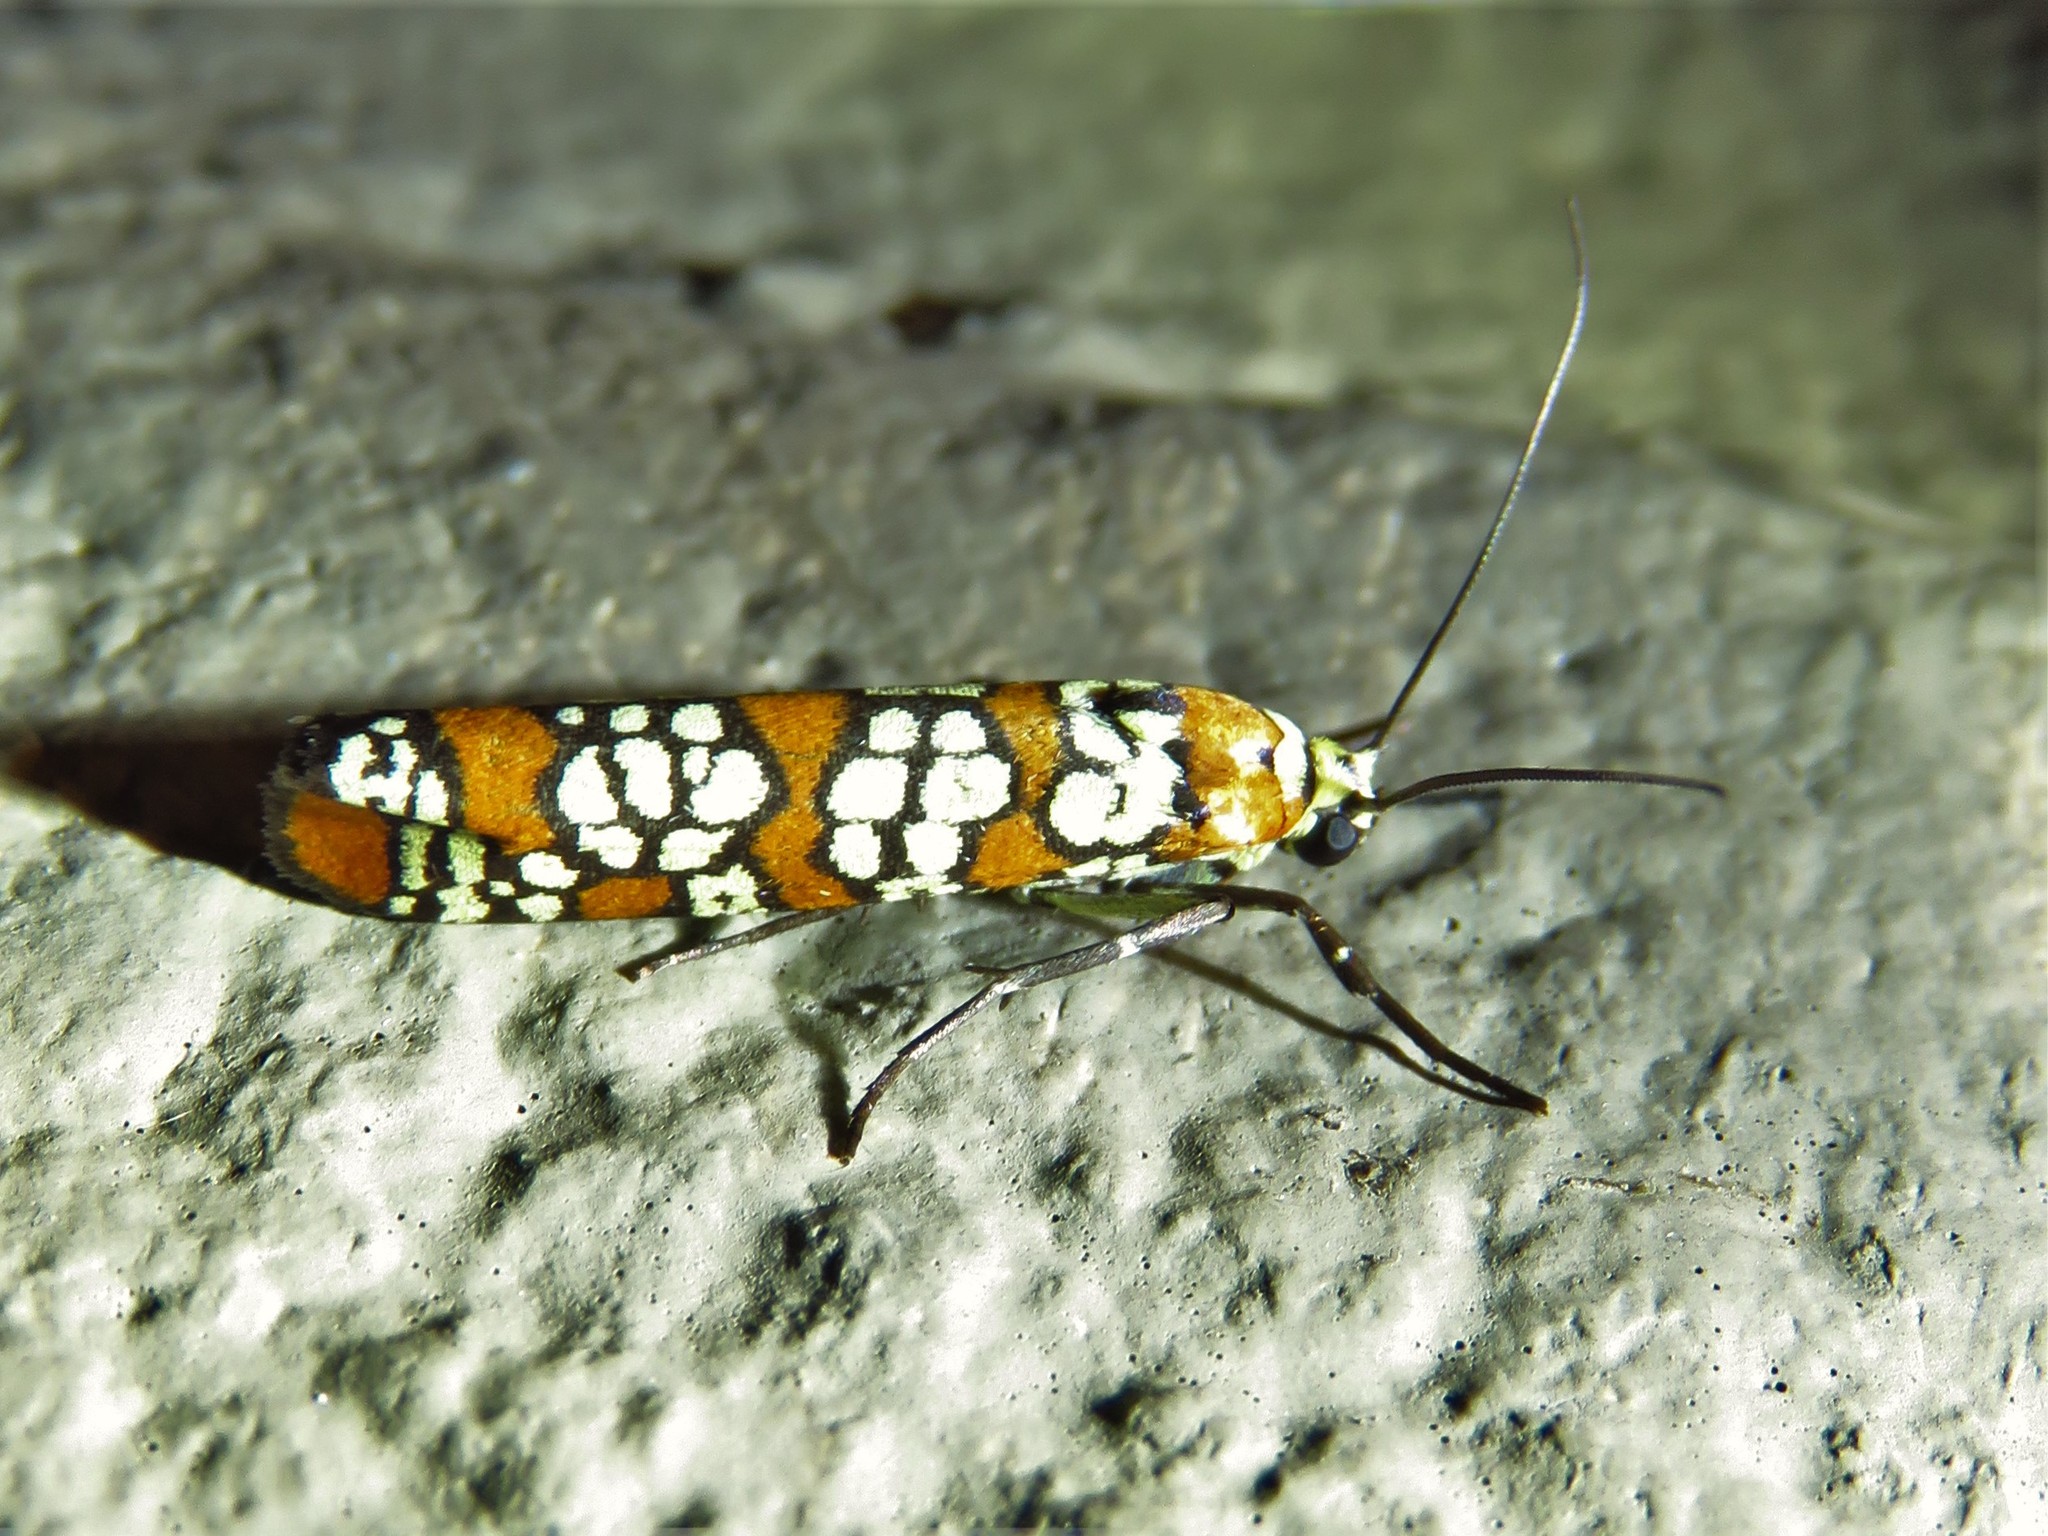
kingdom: Animalia
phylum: Arthropoda
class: Insecta
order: Lepidoptera
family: Attevidae
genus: Atteva
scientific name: Atteva punctella
